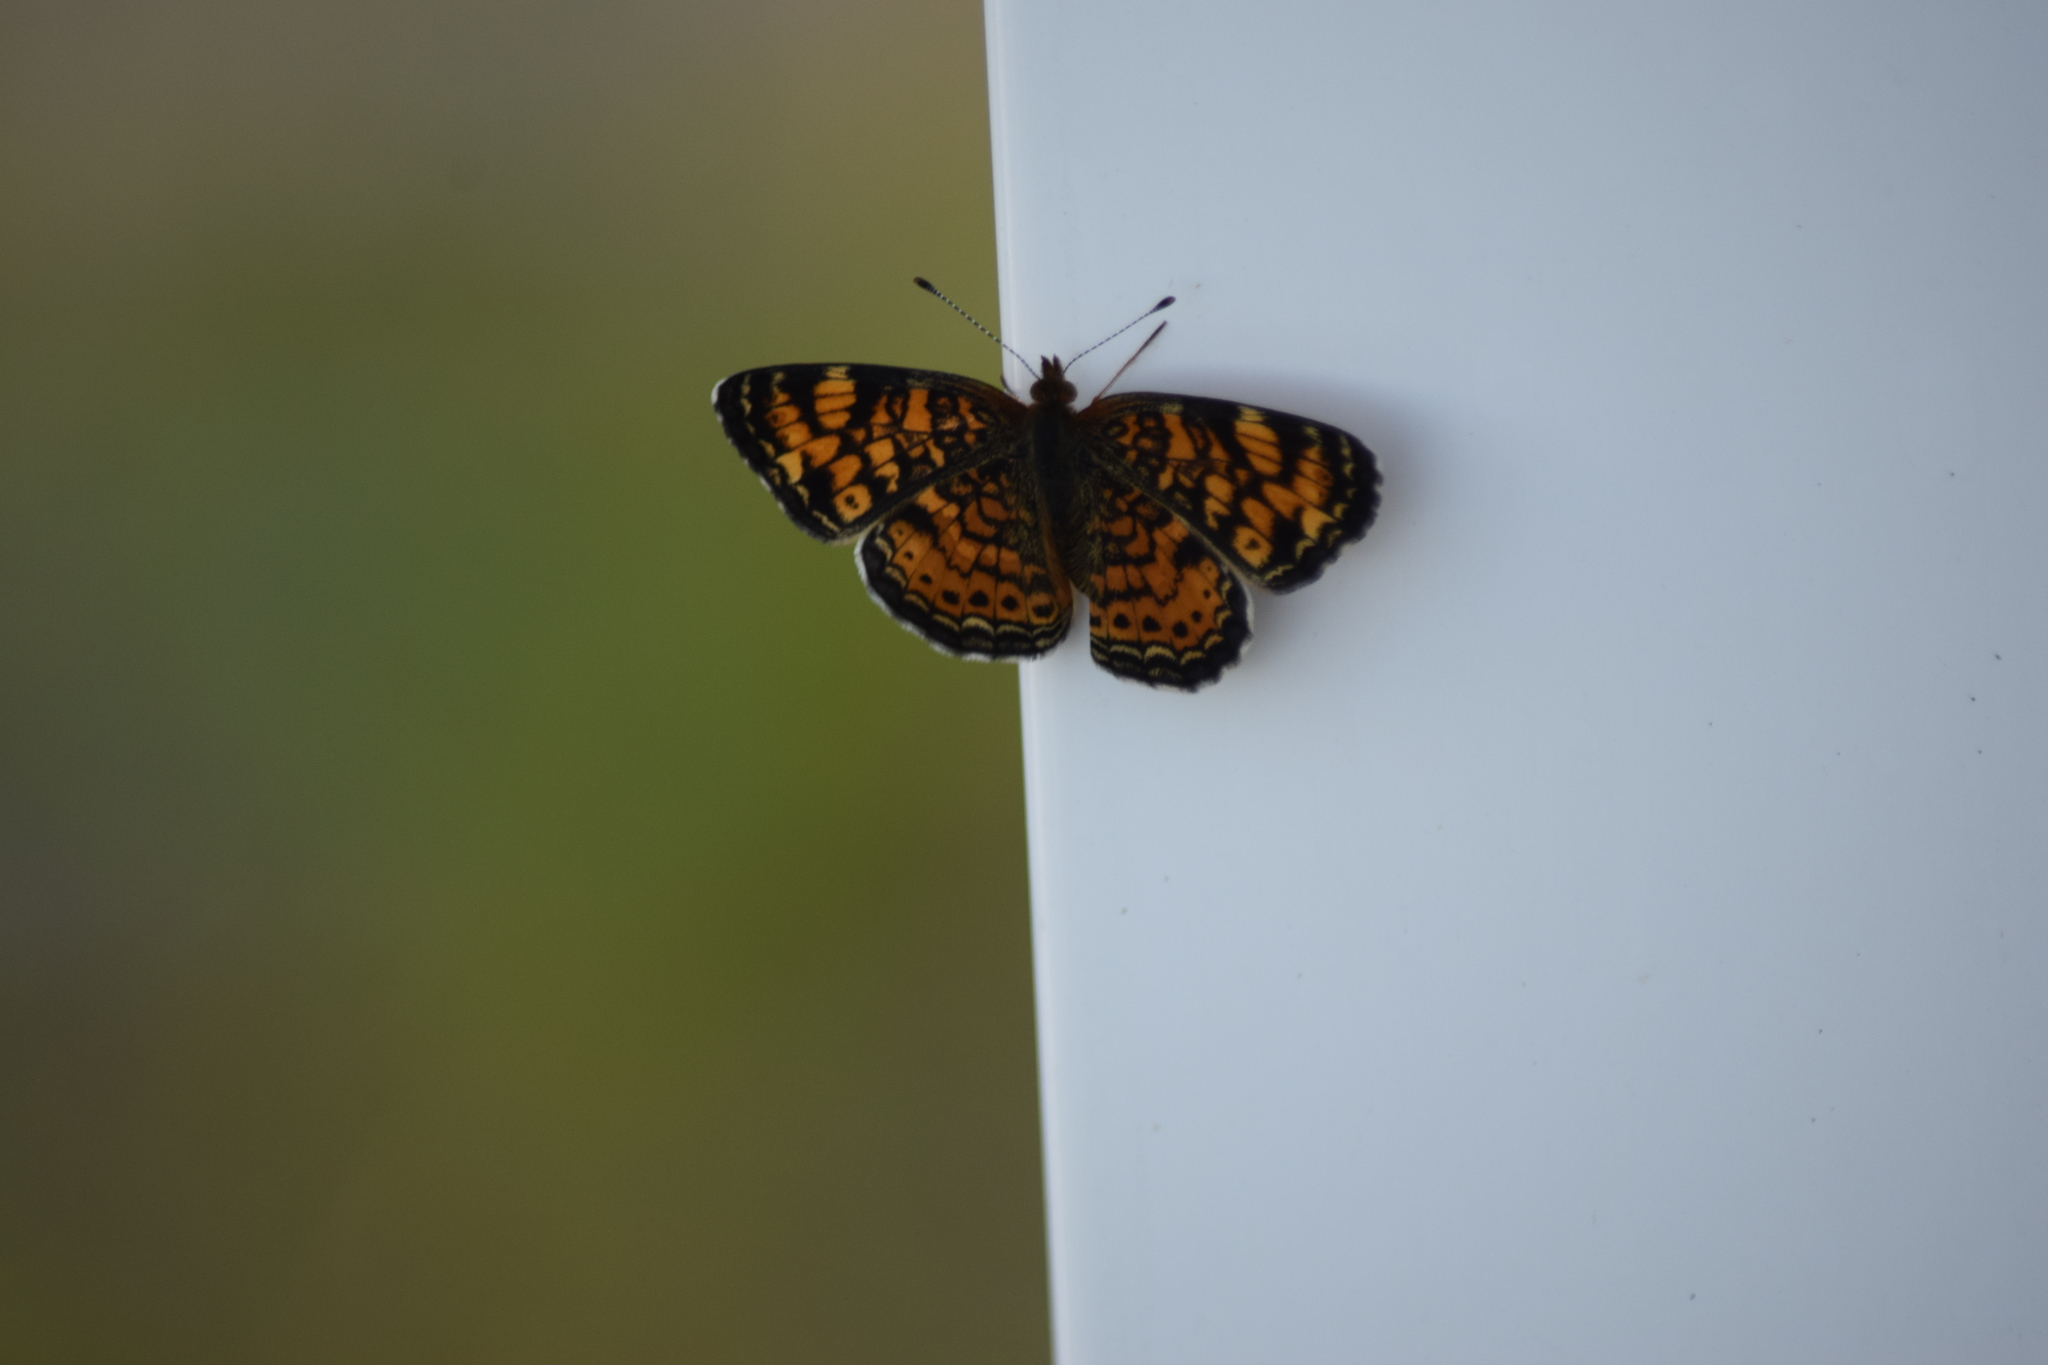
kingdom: Animalia
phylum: Arthropoda
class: Insecta
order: Lepidoptera
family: Nymphalidae
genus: Phyciodes
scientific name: Phyciodes tharos
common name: Pearl crescent
